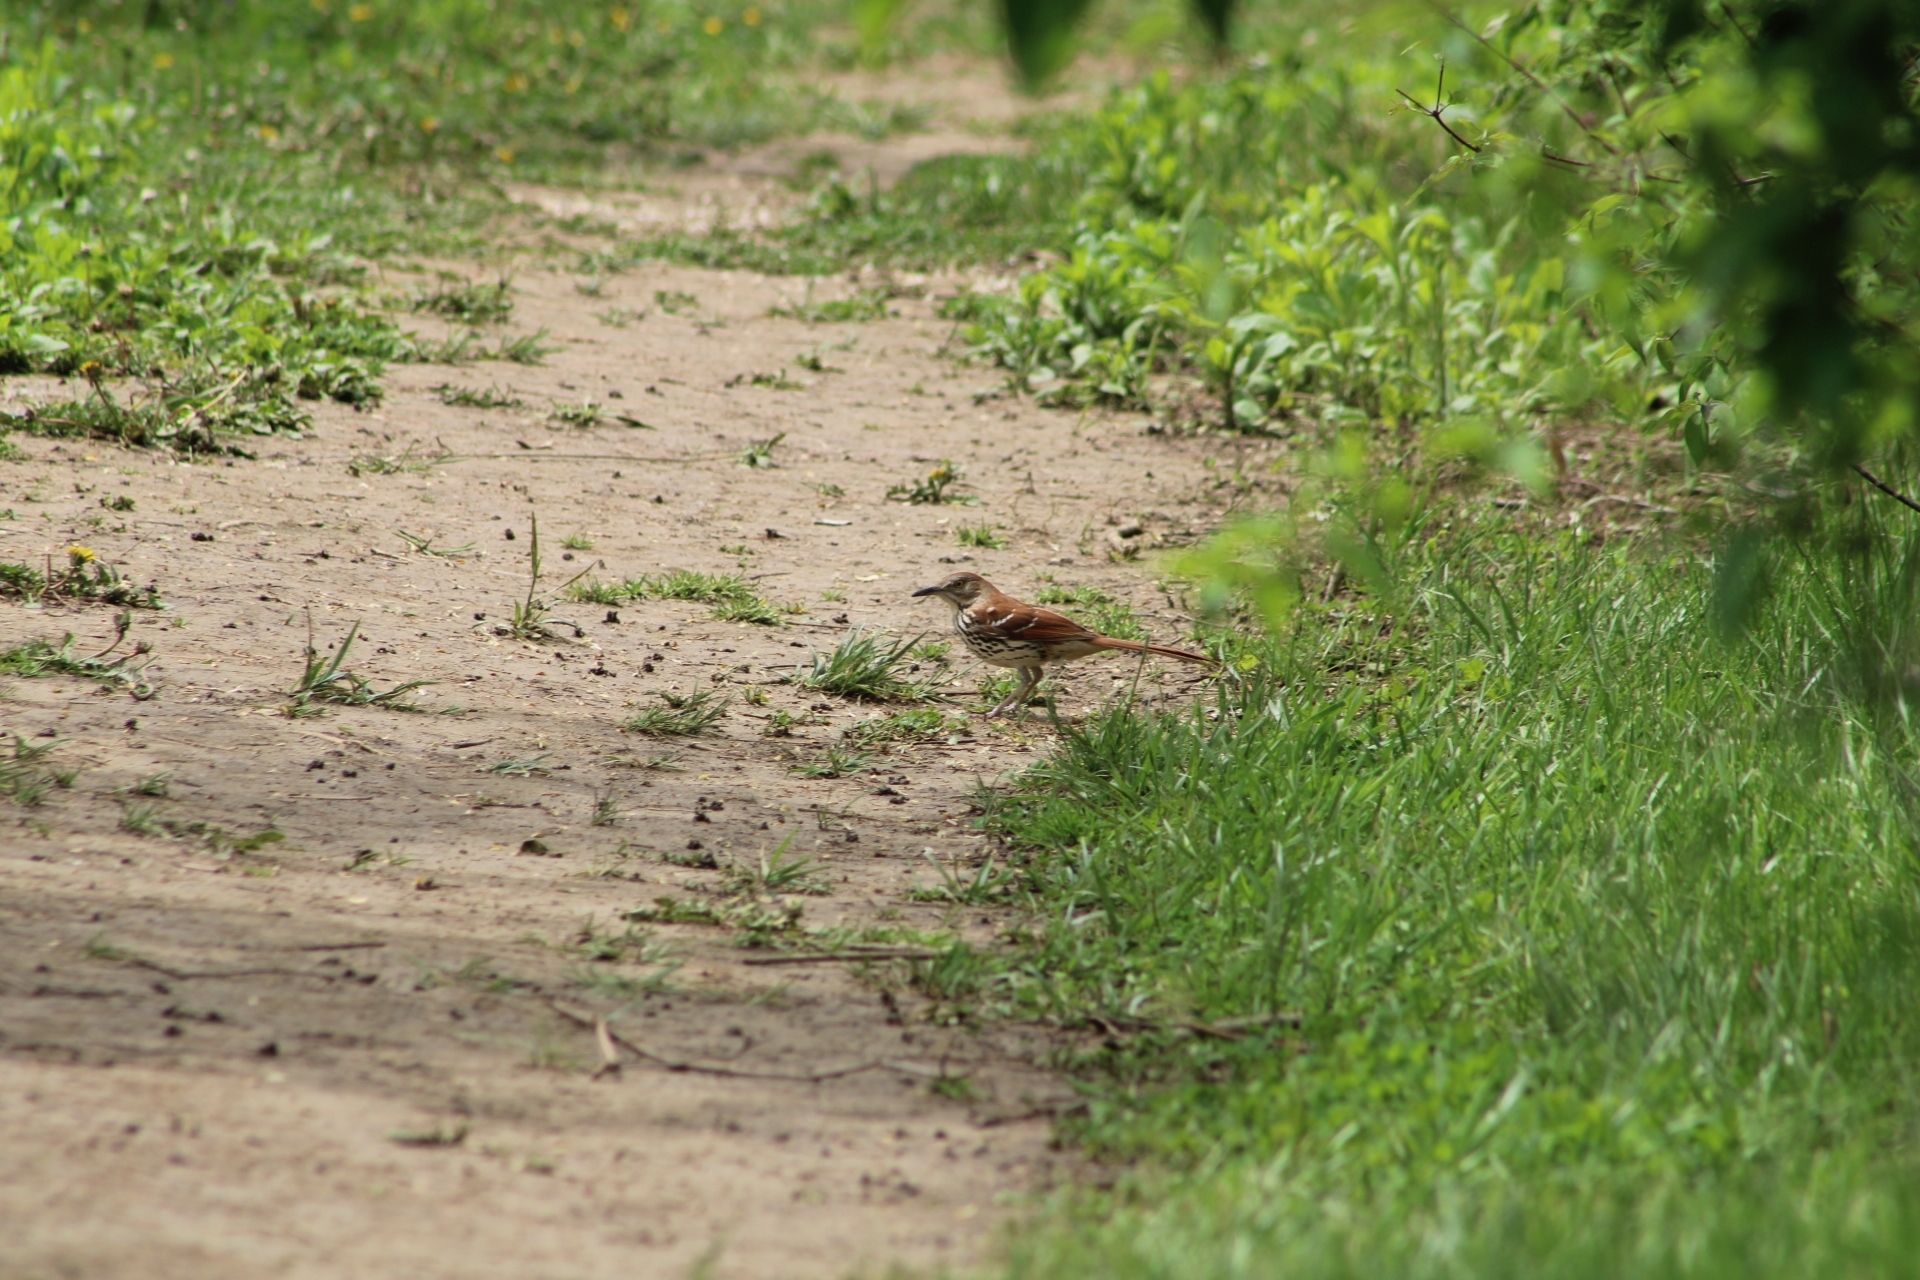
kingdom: Animalia
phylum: Chordata
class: Aves
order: Passeriformes
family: Mimidae
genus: Toxostoma
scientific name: Toxostoma rufum
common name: Brown thrasher
